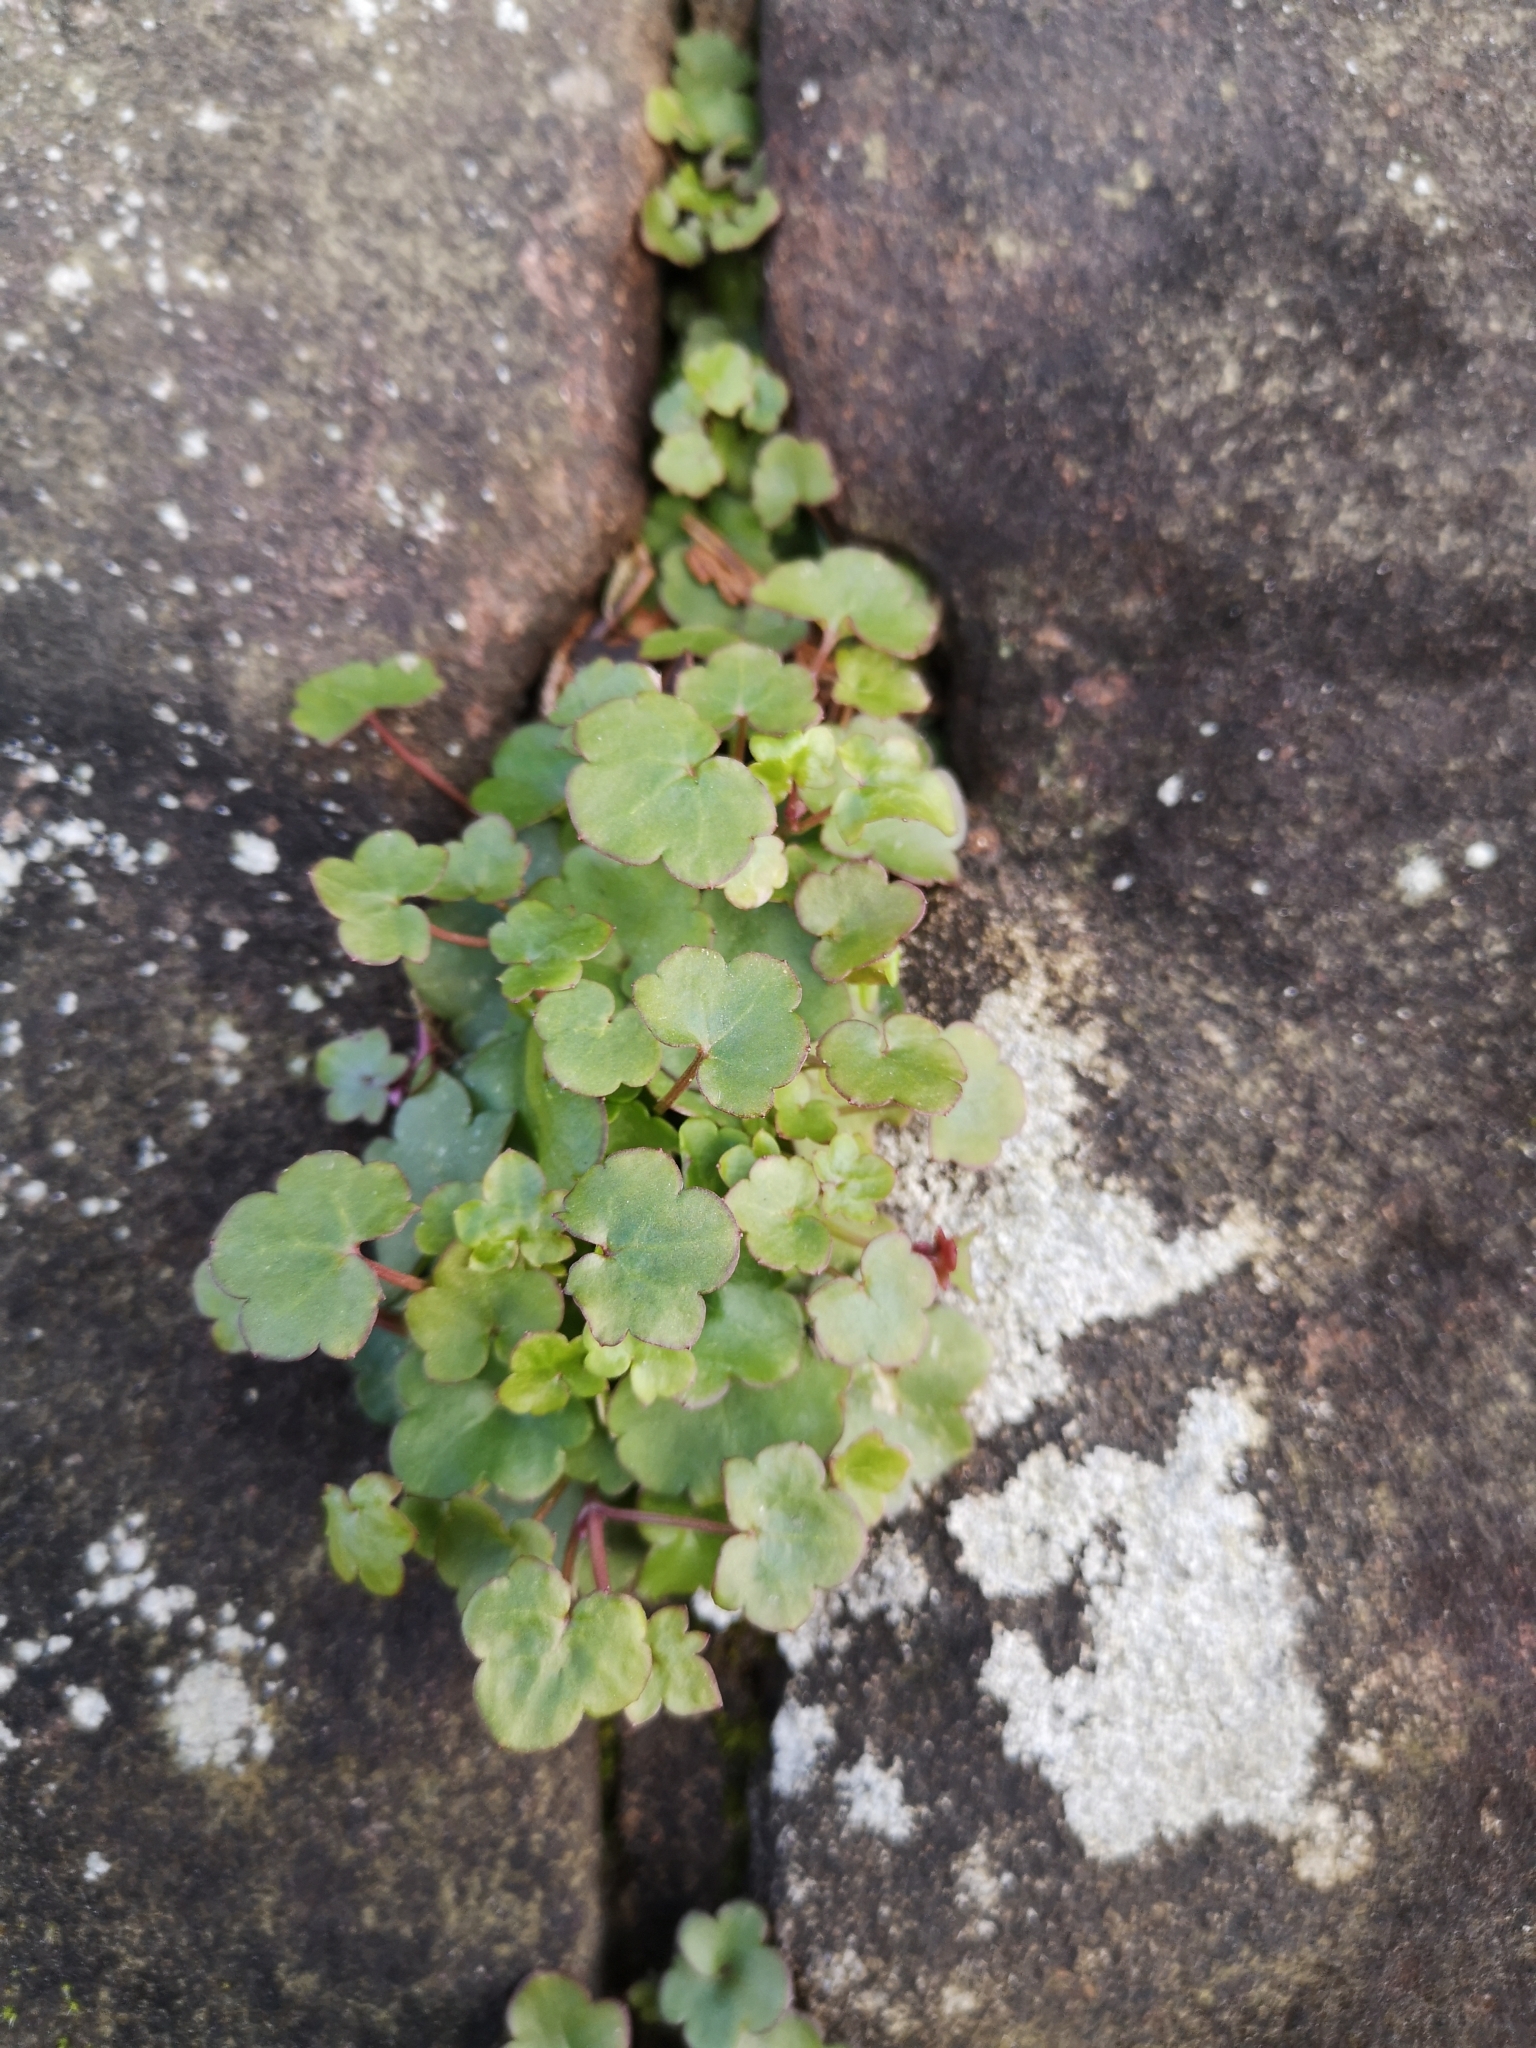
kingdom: Plantae
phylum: Tracheophyta
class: Magnoliopsida
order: Lamiales
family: Plantaginaceae
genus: Cymbalaria
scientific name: Cymbalaria muralis
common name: Ivy-leaved toadflax
